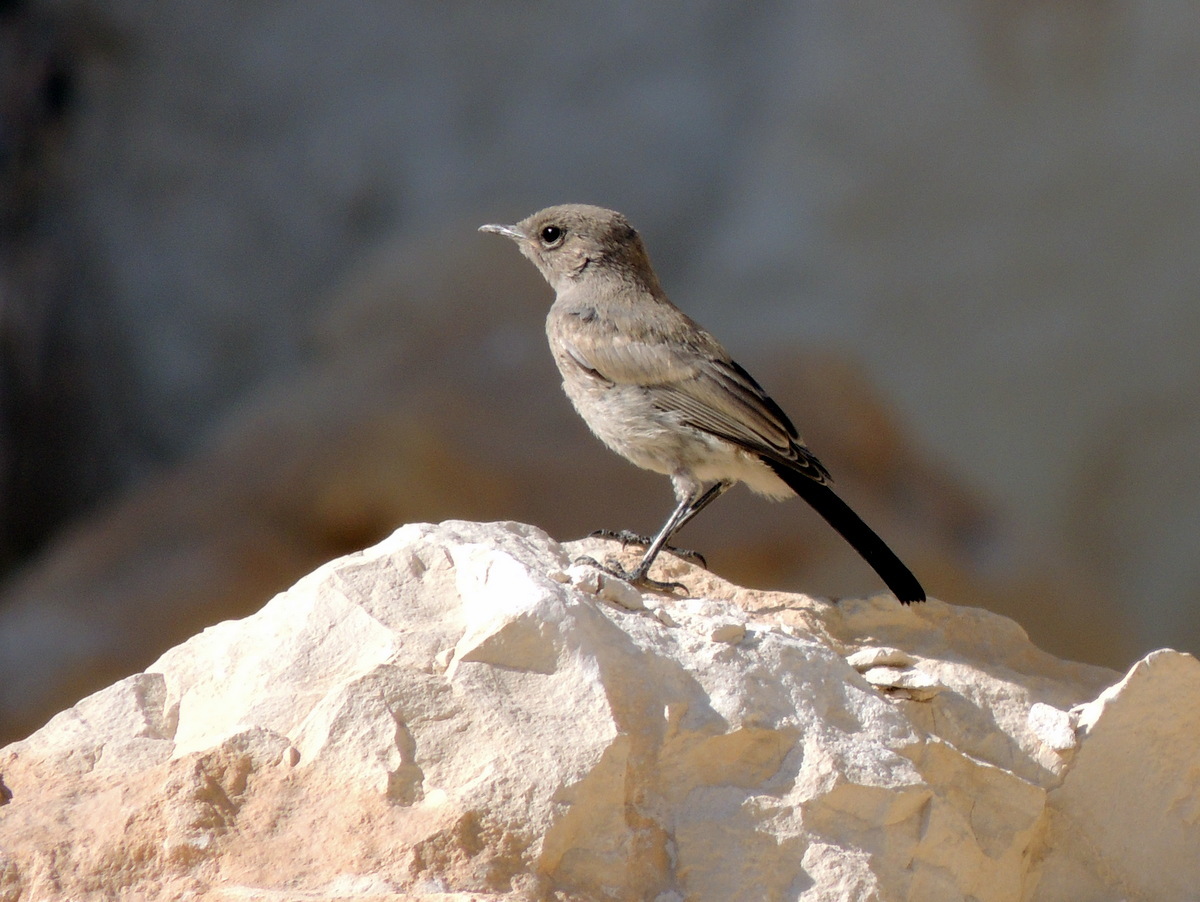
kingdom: Animalia
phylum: Chordata
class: Aves
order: Passeriformes
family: Muscicapidae
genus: Oenanthe
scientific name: Oenanthe melanura
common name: Blackstart
